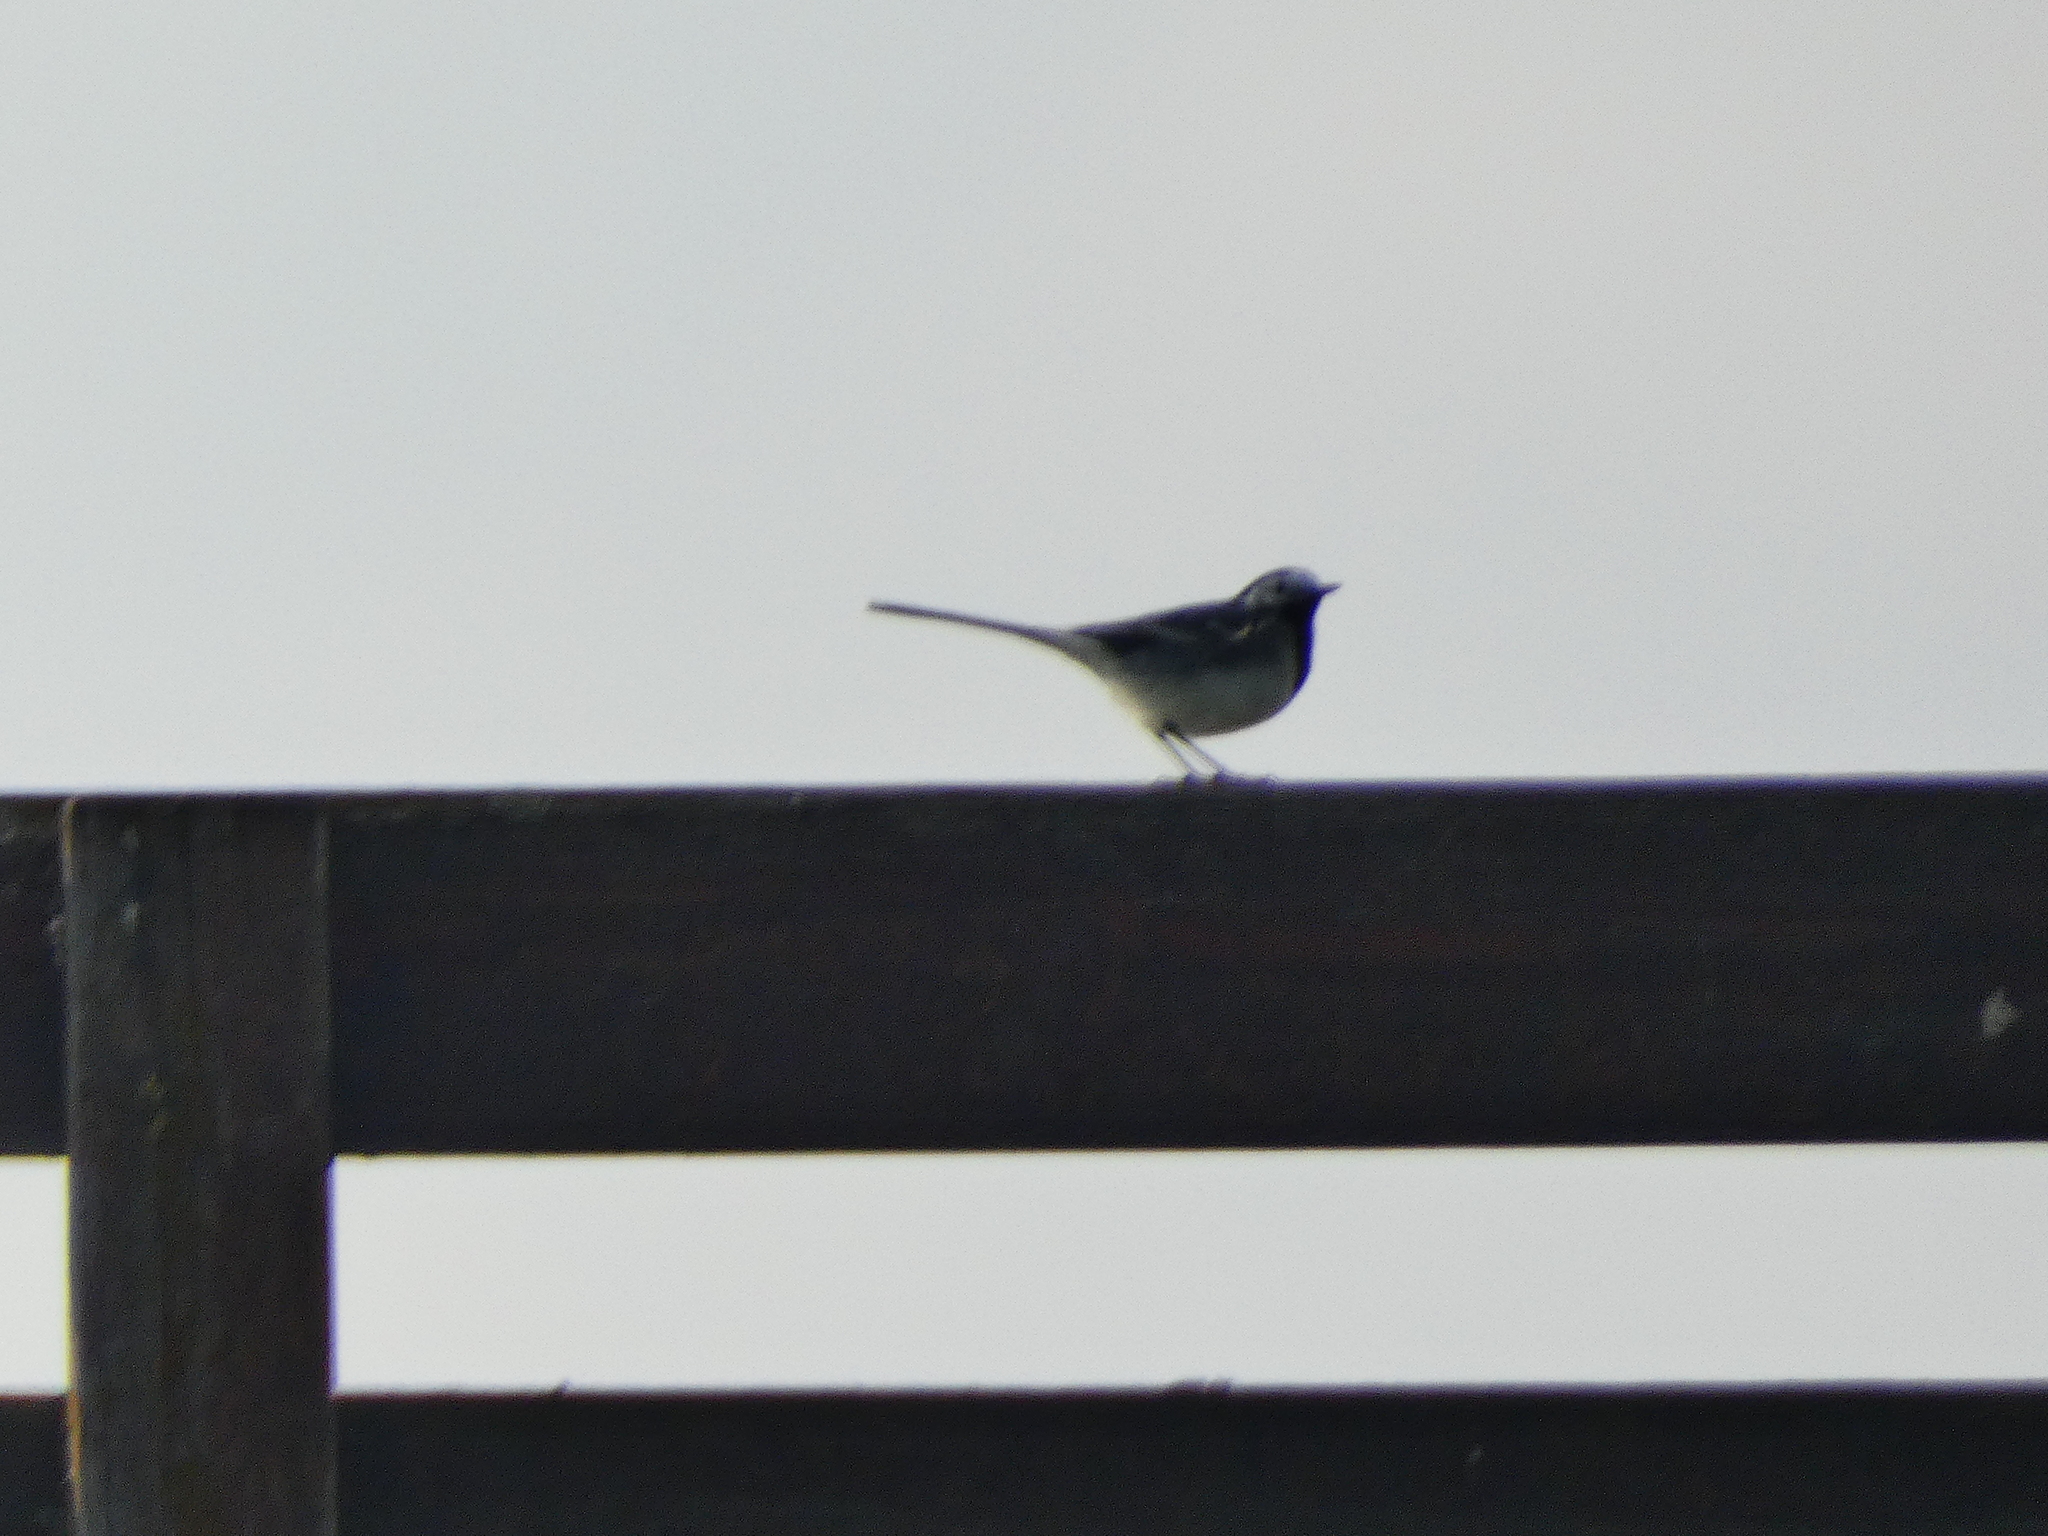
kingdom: Animalia
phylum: Chordata
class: Aves
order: Passeriformes
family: Motacillidae
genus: Motacilla
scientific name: Motacilla alba
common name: White wagtail
